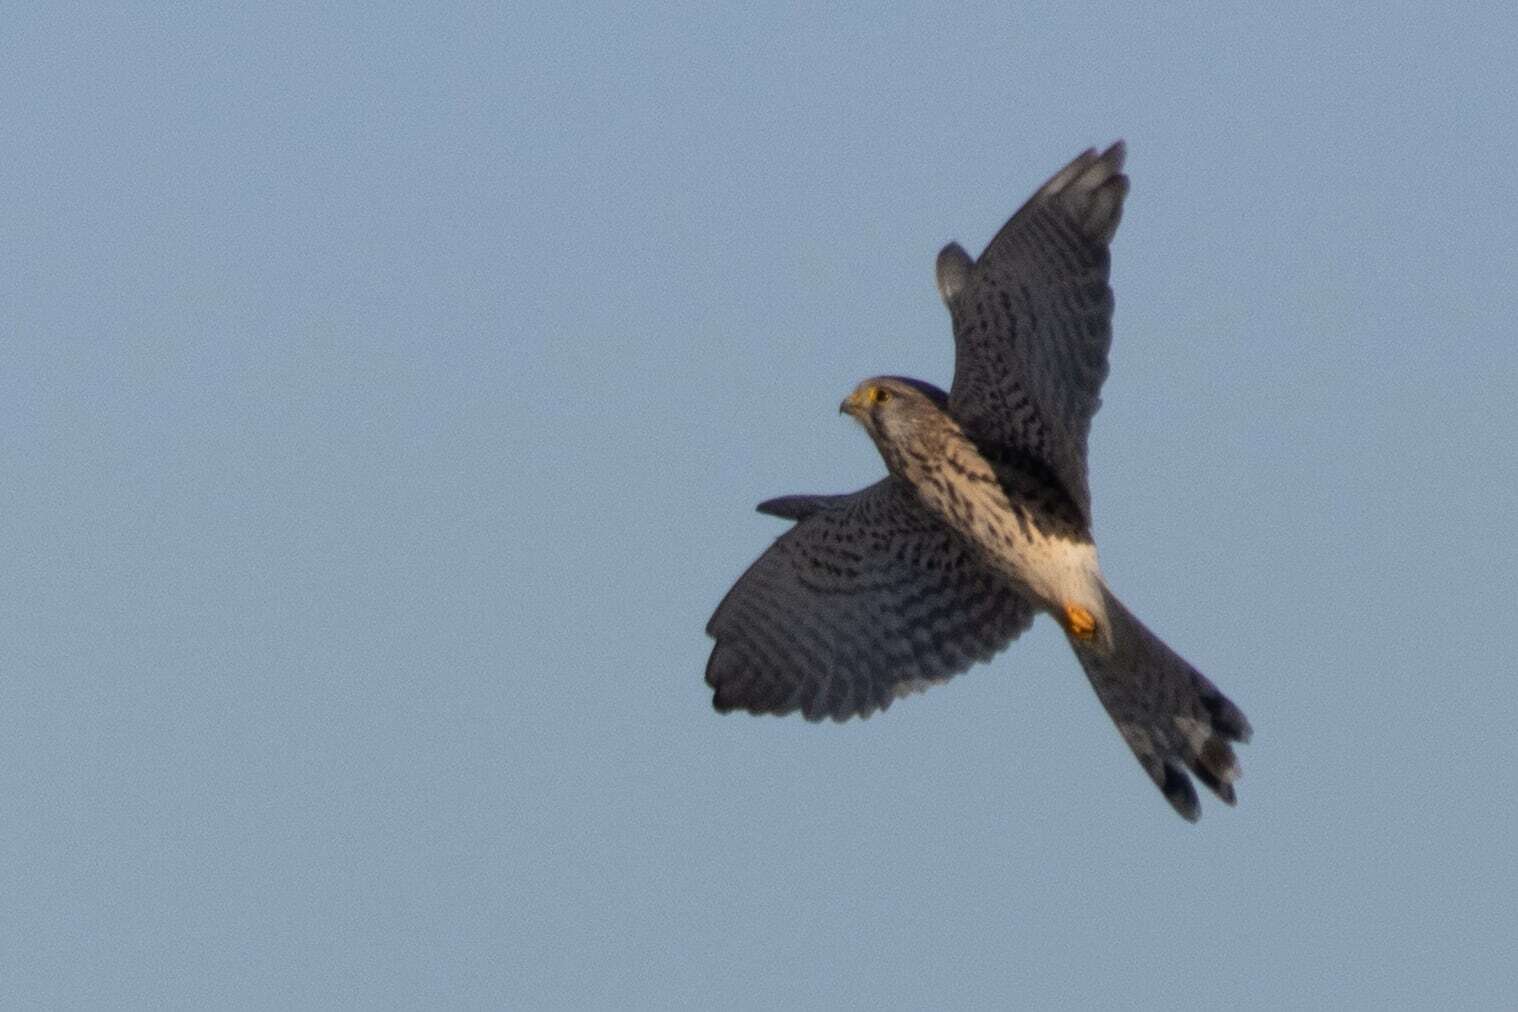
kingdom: Animalia
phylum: Chordata
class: Aves
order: Falconiformes
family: Falconidae
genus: Falco
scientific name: Falco tinnunculus
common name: Common kestrel
